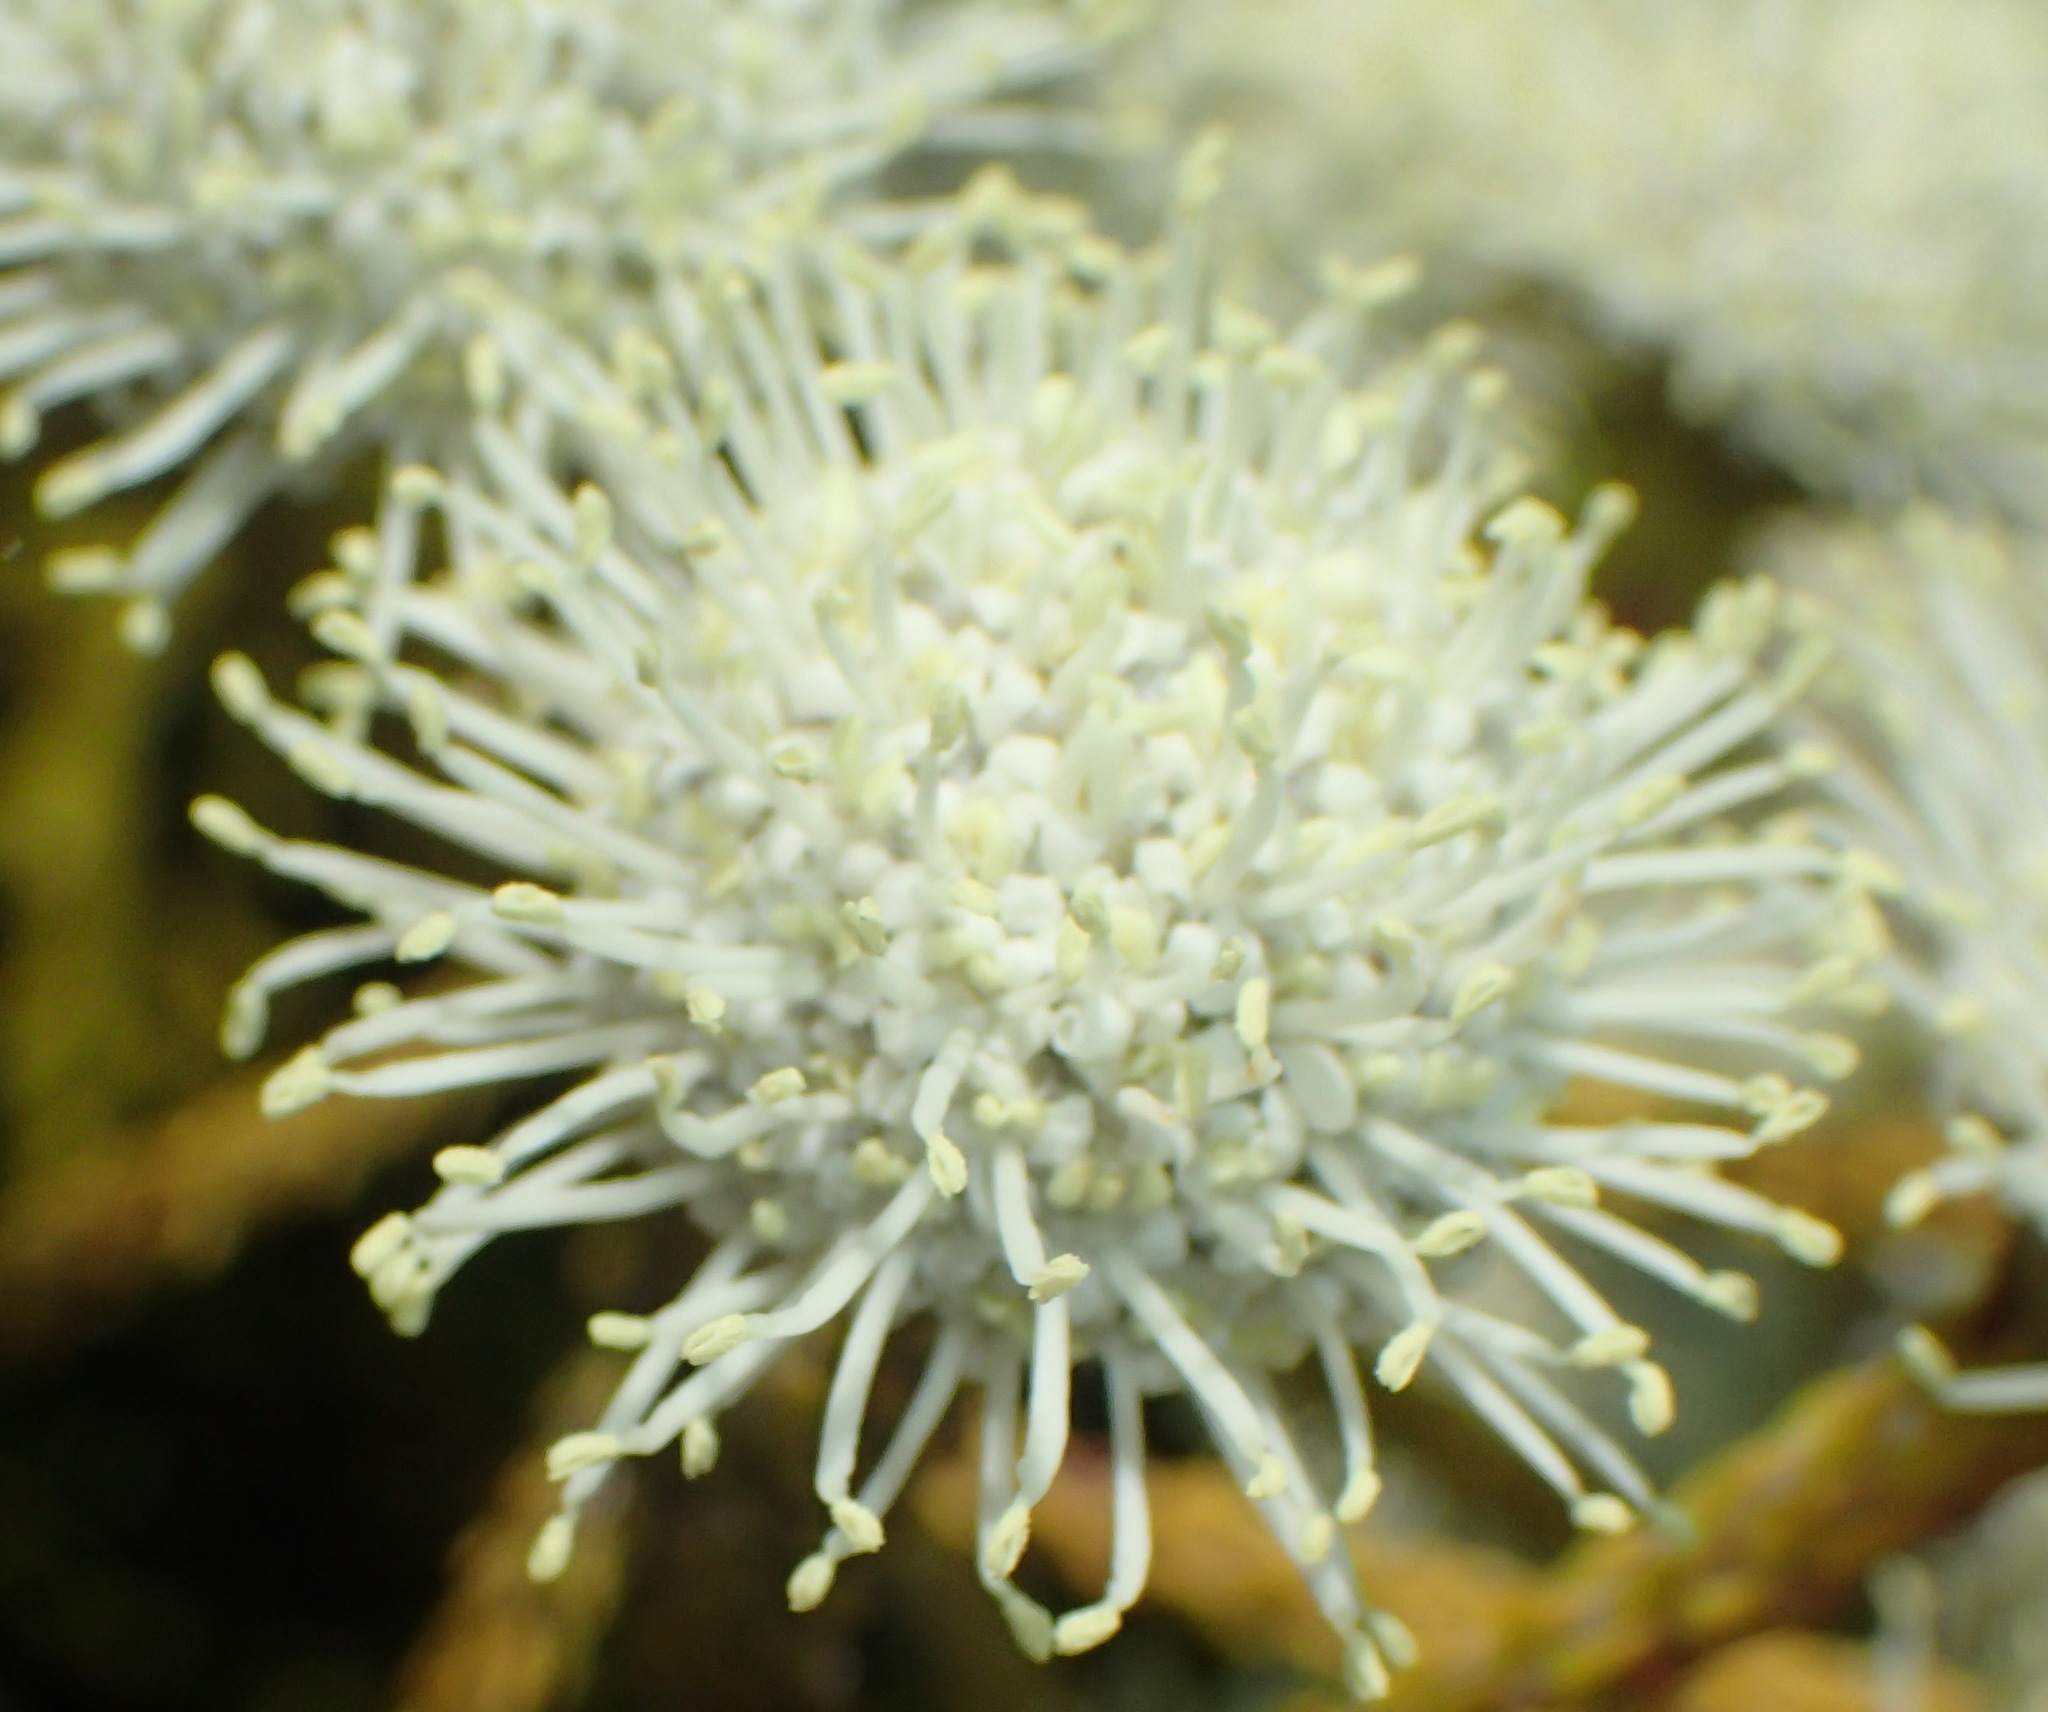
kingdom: Plantae
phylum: Tracheophyta
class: Magnoliopsida
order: Bruniales
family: Bruniaceae
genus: Brunia
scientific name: Brunia noduliflora
